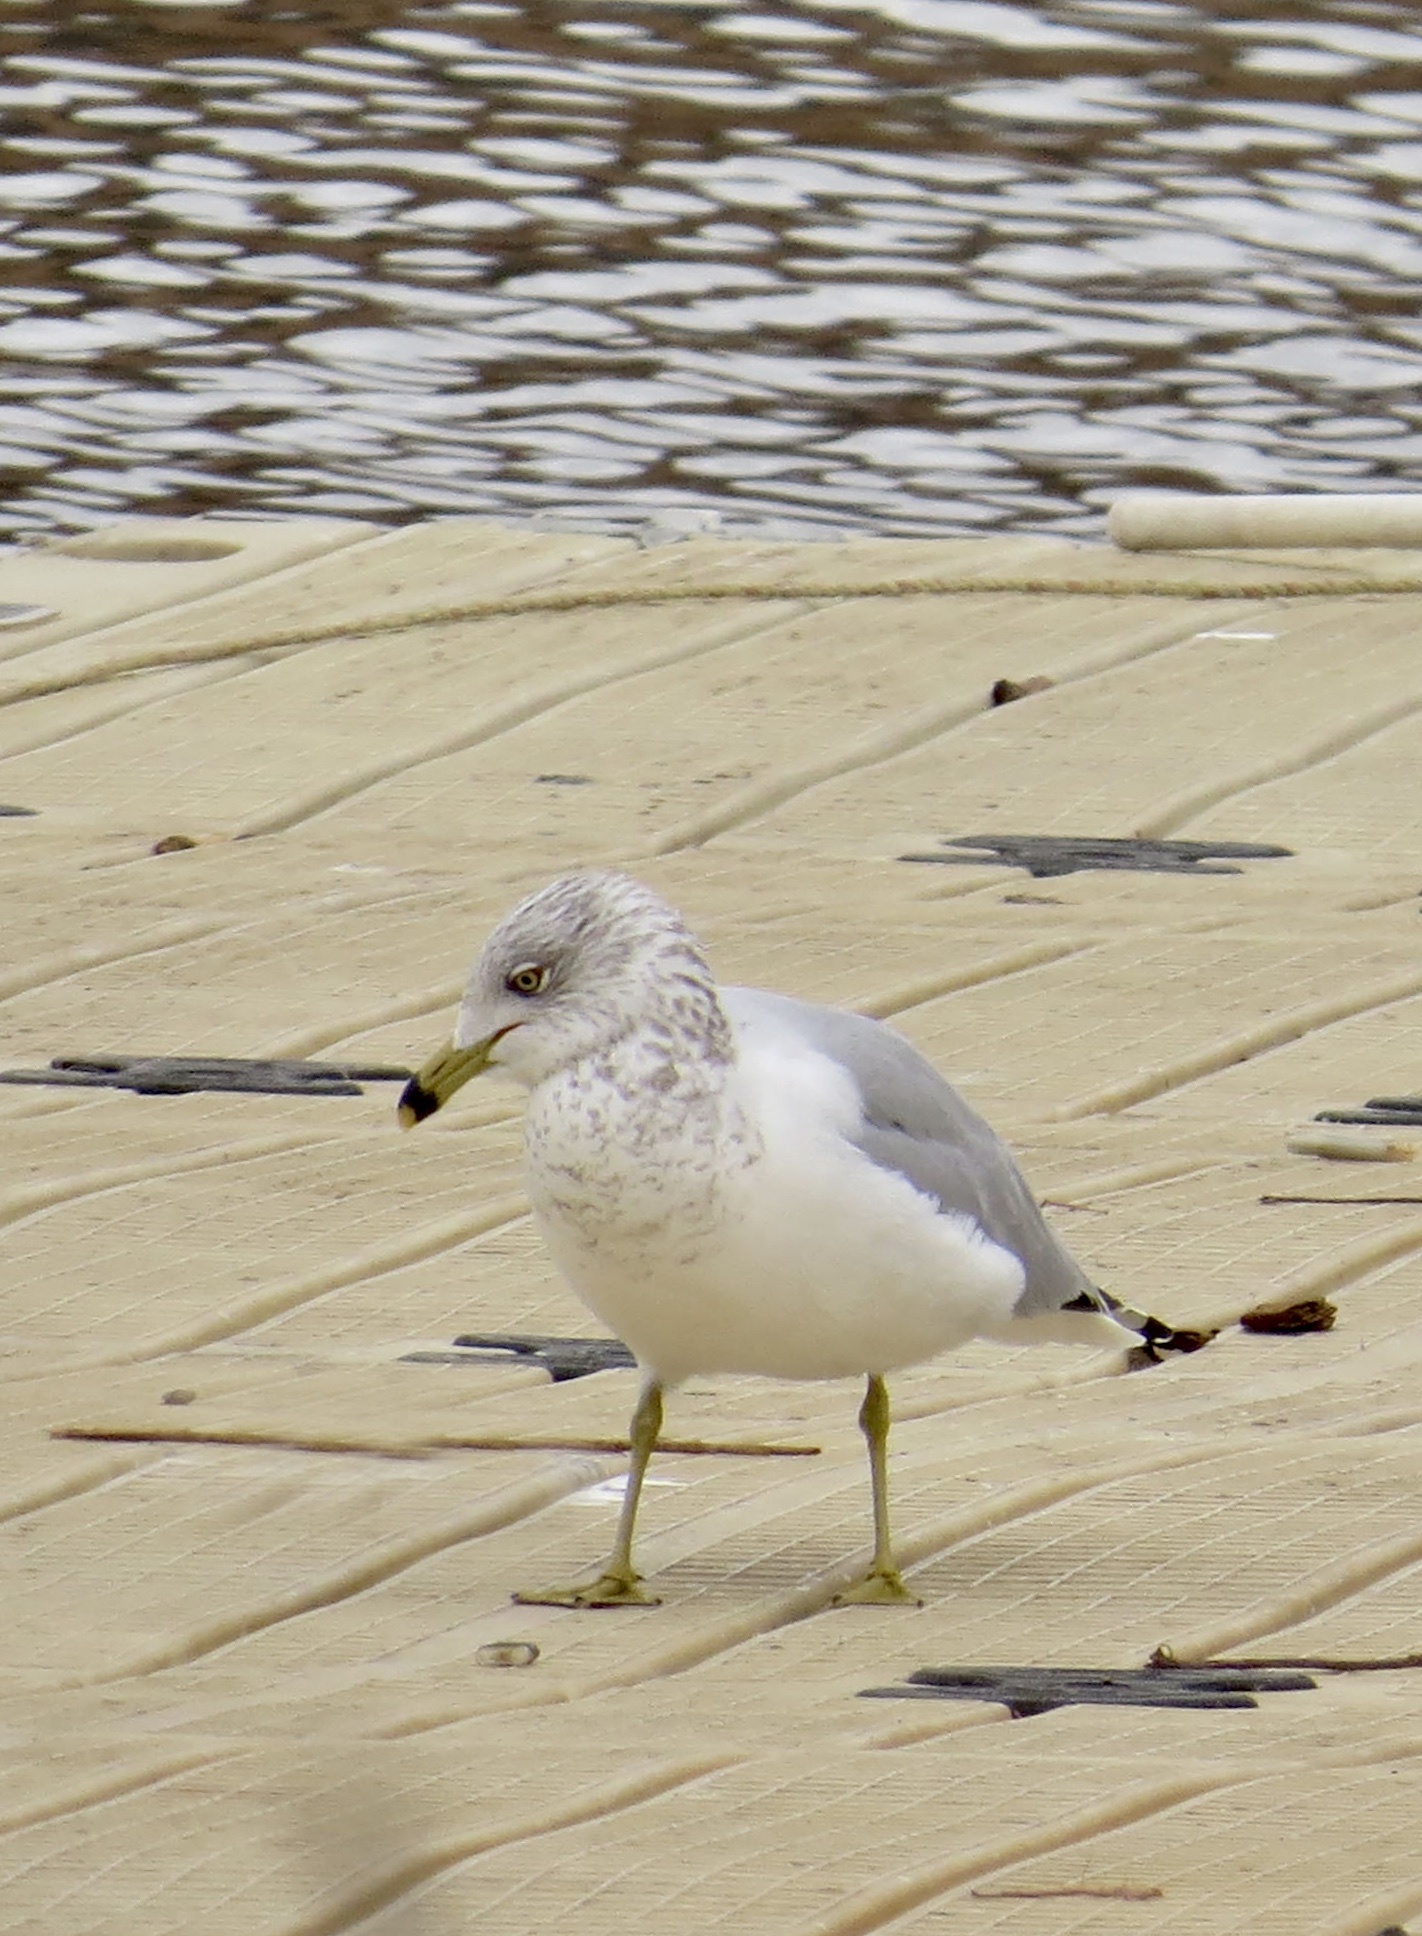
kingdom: Animalia
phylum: Chordata
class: Aves
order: Charadriiformes
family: Laridae
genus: Larus
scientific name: Larus delawarensis
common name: Ring-billed gull
